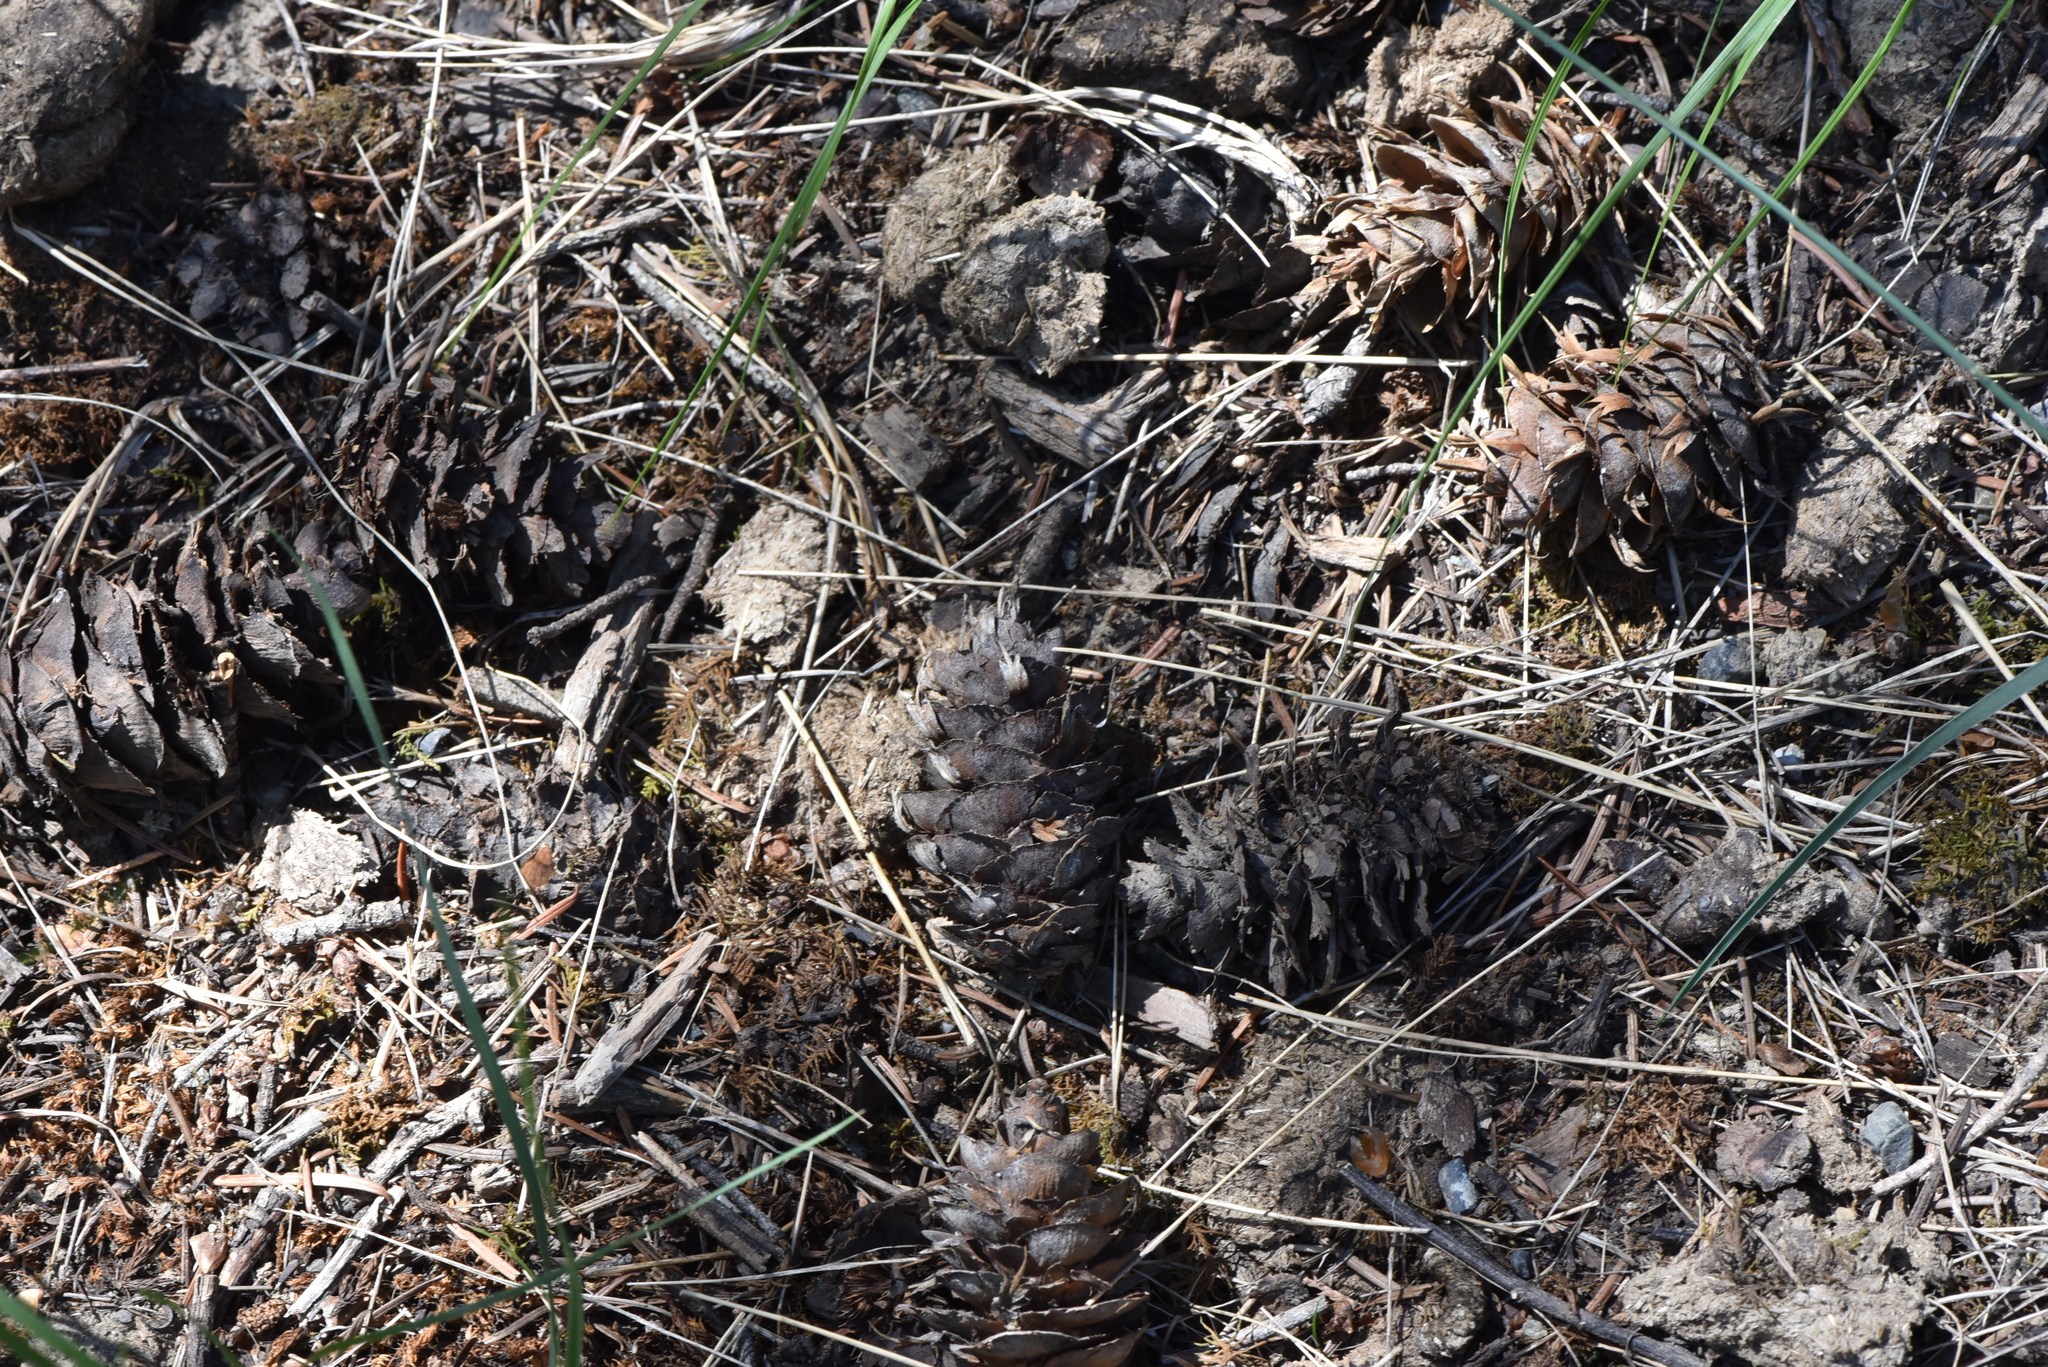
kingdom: Plantae
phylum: Tracheophyta
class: Pinopsida
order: Pinales
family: Pinaceae
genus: Pseudotsuga
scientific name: Pseudotsuga menziesii
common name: Douglas fir
